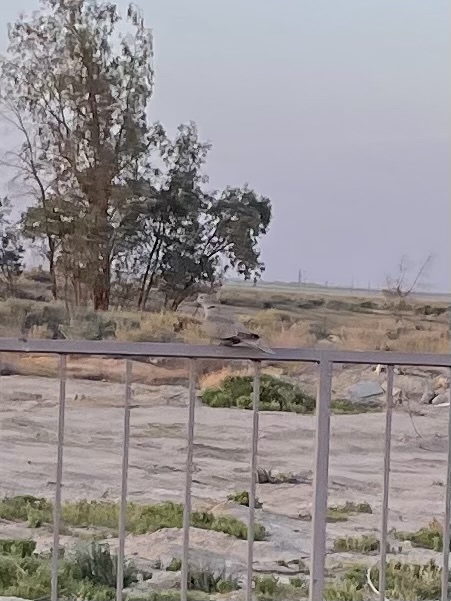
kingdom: Animalia
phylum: Chordata
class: Aves
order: Columbiformes
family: Columbidae
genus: Streptopelia
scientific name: Streptopelia decaocto
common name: Eurasian collared dove
